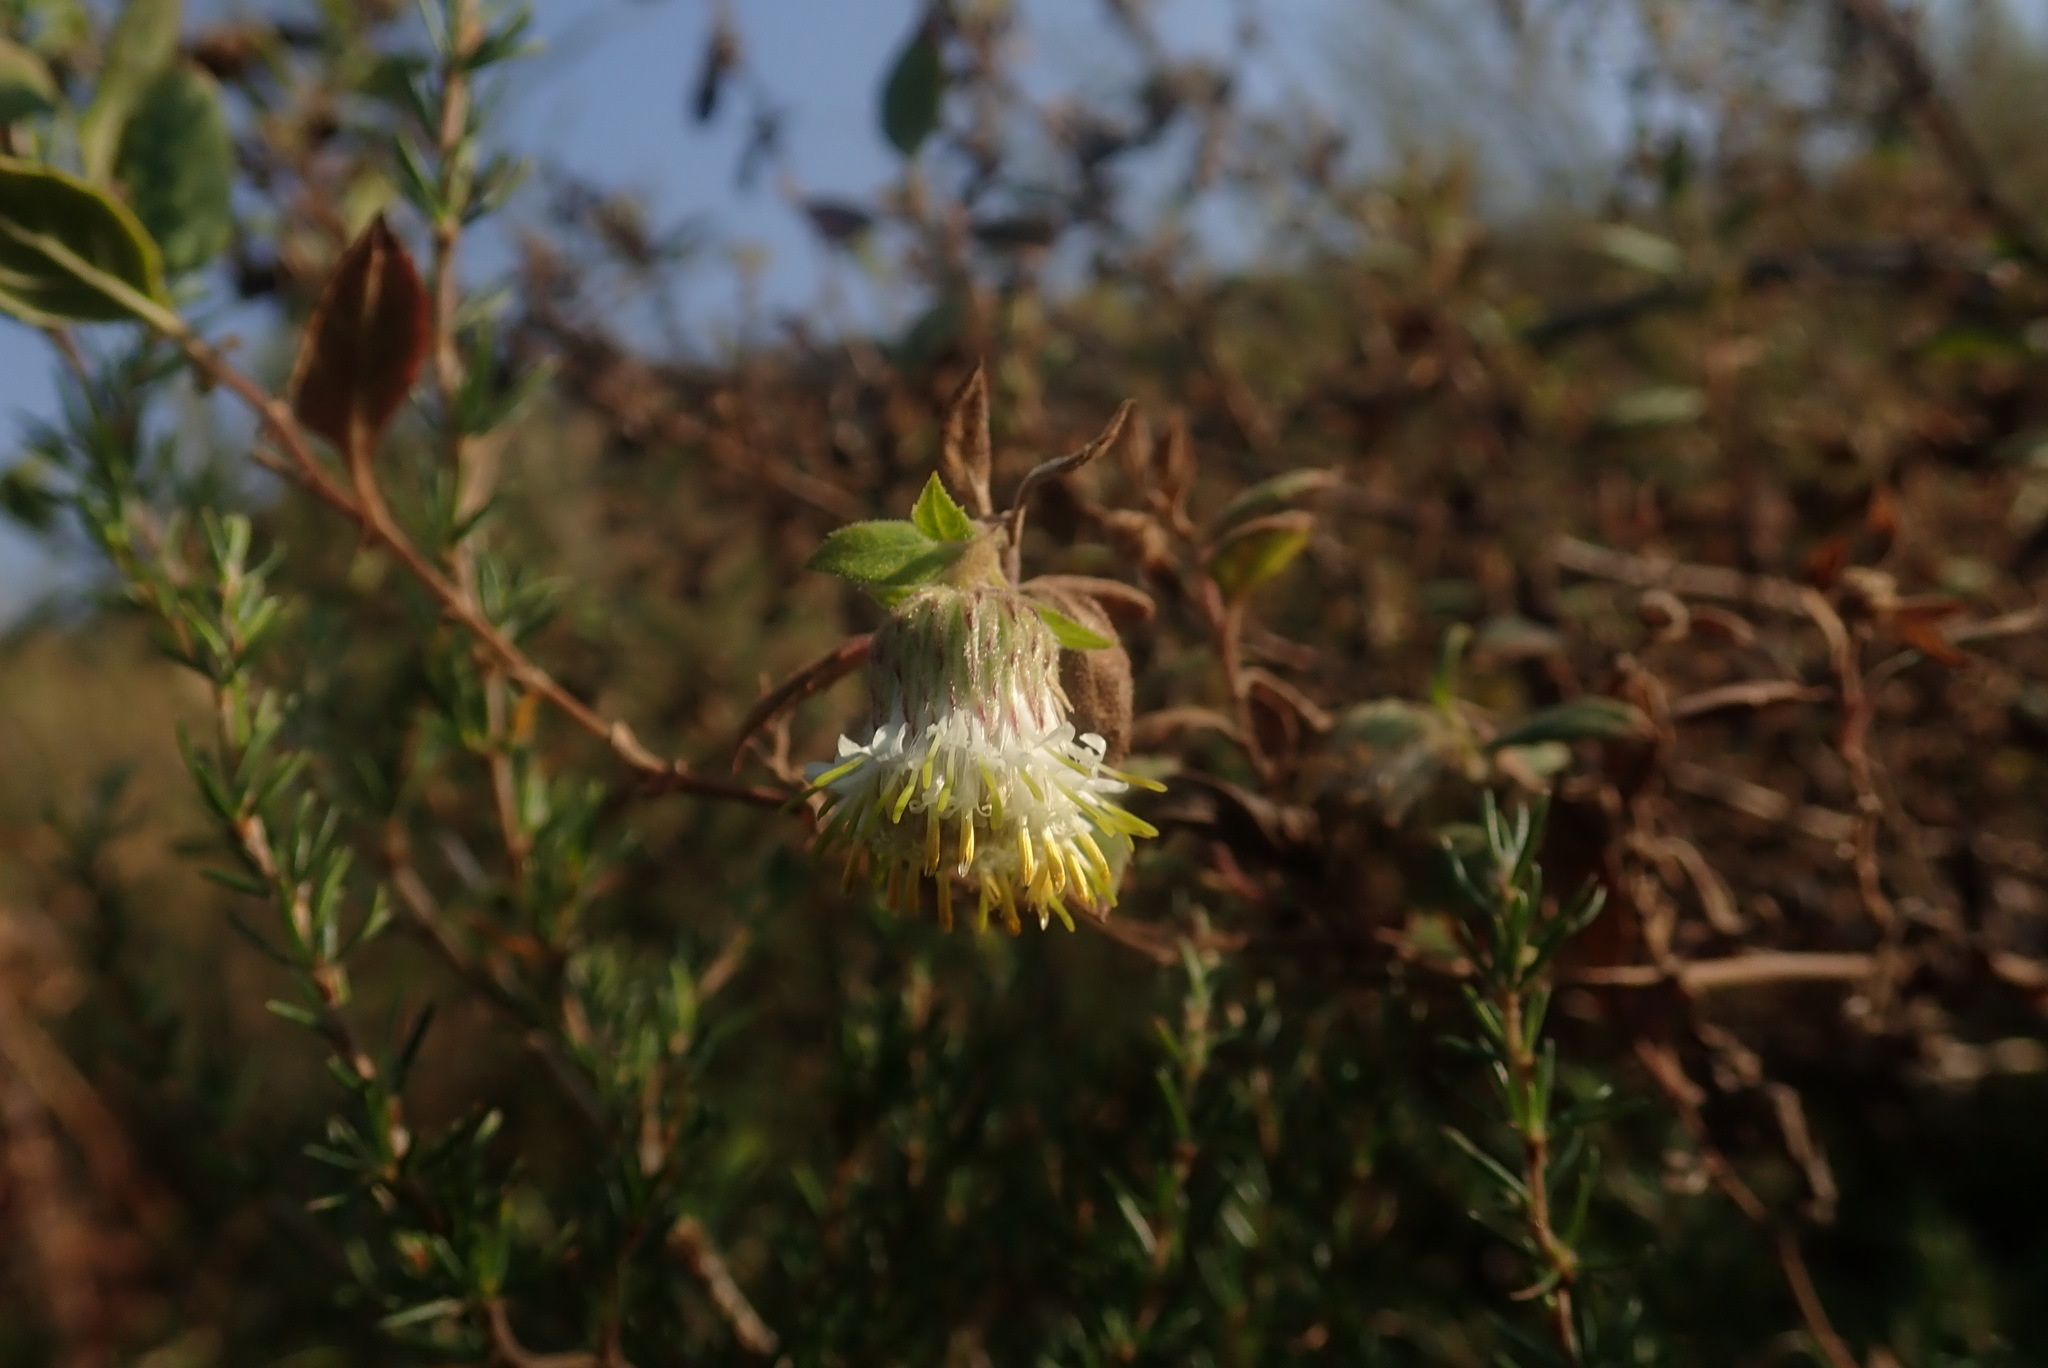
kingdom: Plantae
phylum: Tracheophyta
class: Magnoliopsida
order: Asterales
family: Asteraceae
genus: Printzia
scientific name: Printzia huttonii
